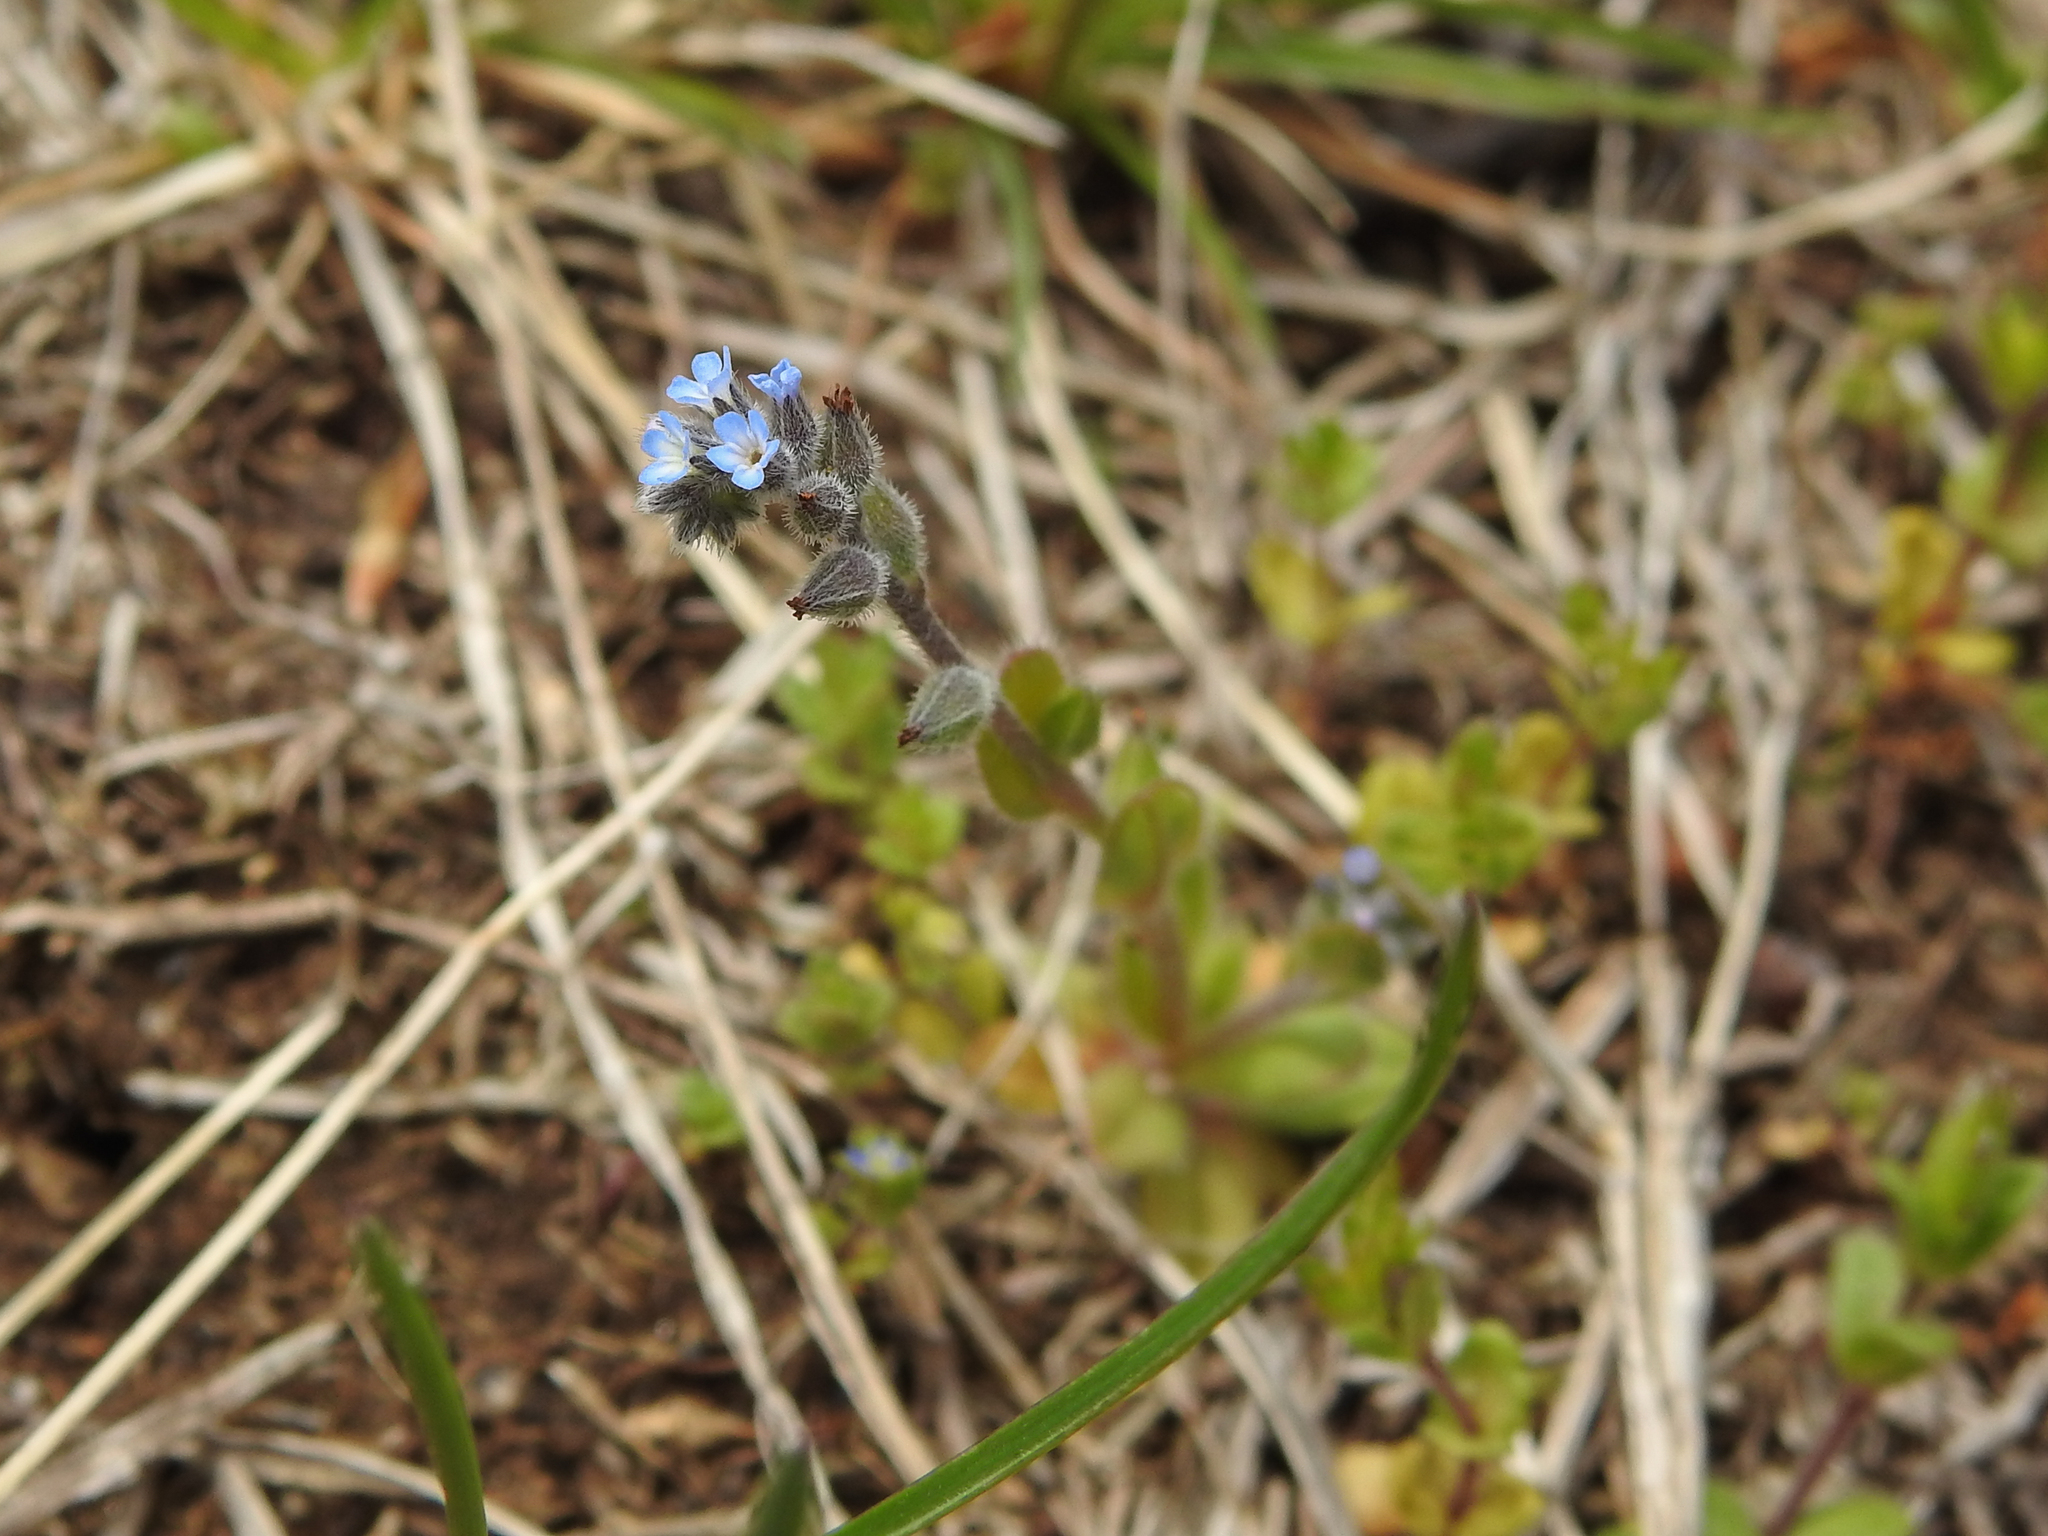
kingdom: Plantae
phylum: Tracheophyta
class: Magnoliopsida
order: Boraginales
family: Boraginaceae
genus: Myosotis
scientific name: Myosotis stricta
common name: Strict forget-me-not
